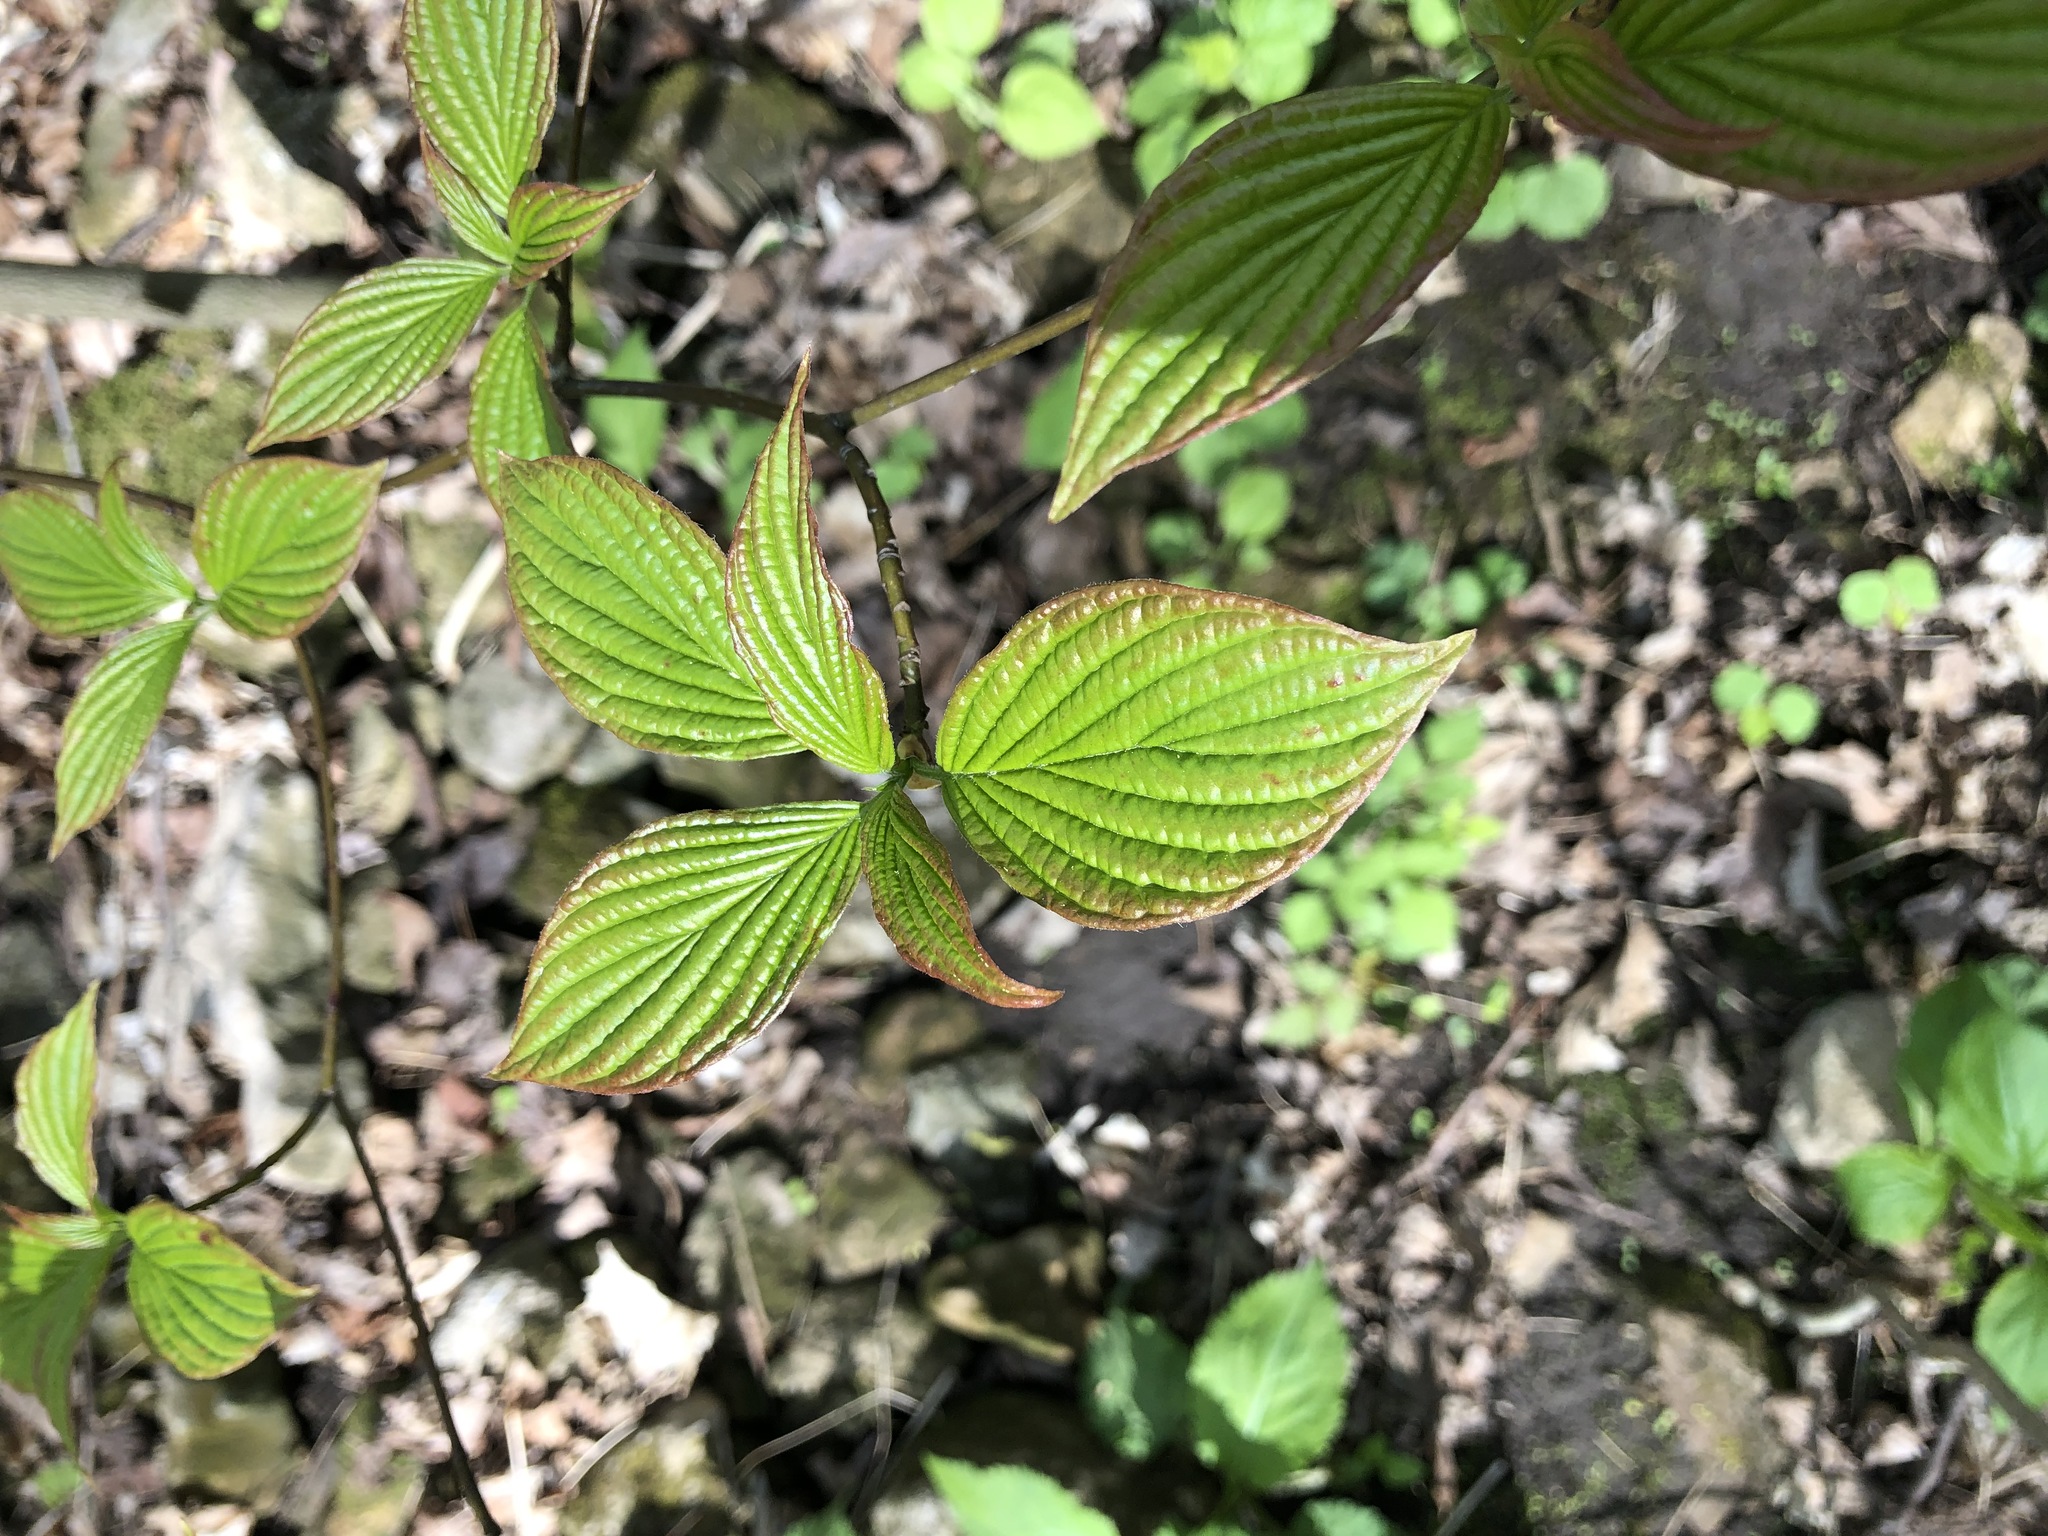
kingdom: Plantae
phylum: Tracheophyta
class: Magnoliopsida
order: Cornales
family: Cornaceae
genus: Cornus
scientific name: Cornus alternifolia
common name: Pagoda dogwood
